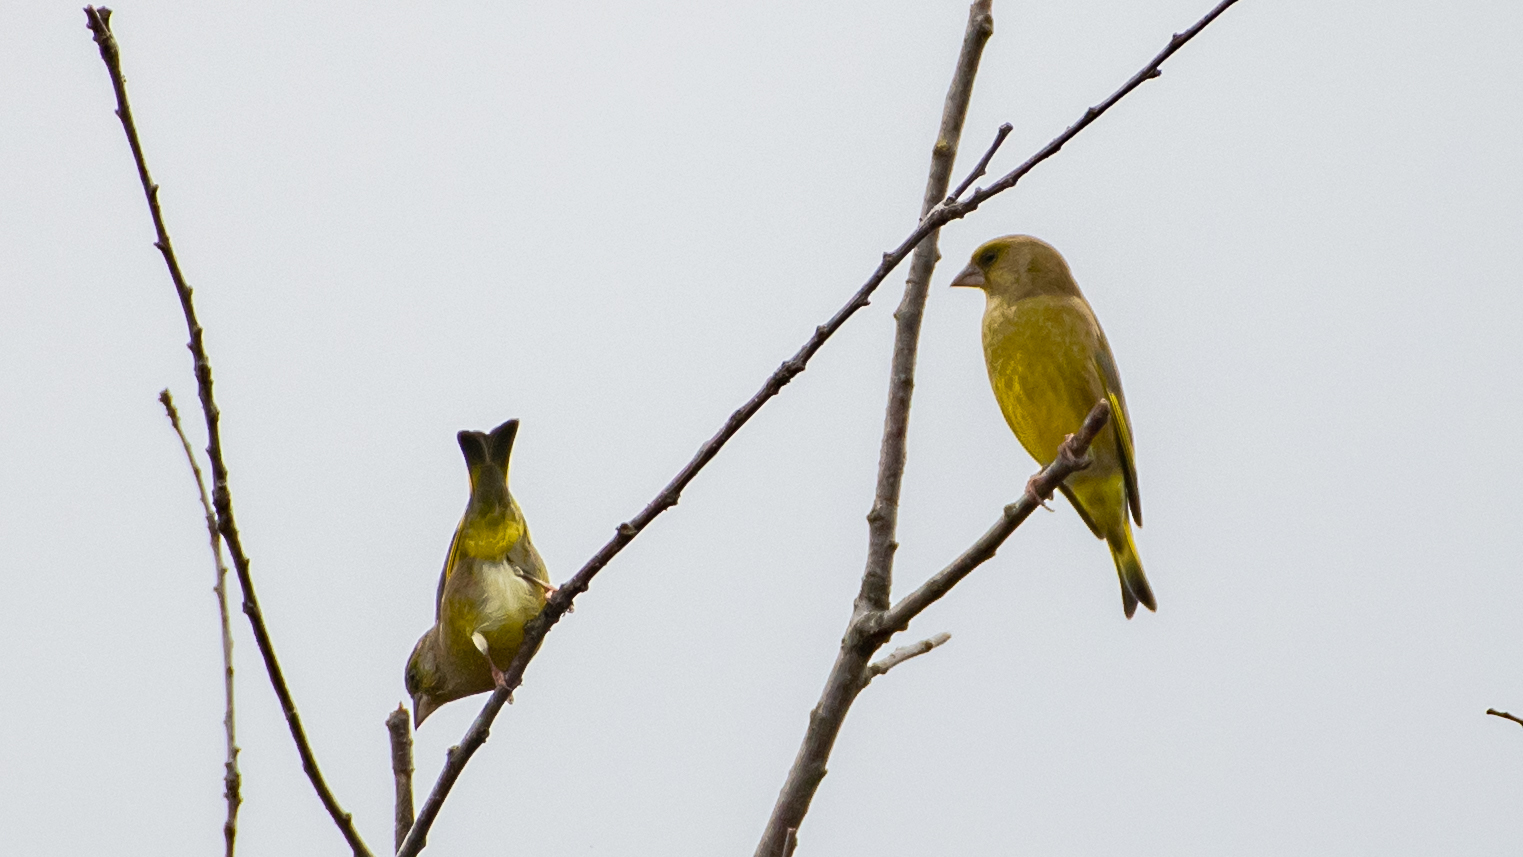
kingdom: Plantae
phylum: Tracheophyta
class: Liliopsida
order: Poales
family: Poaceae
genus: Chloris
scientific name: Chloris chloris
